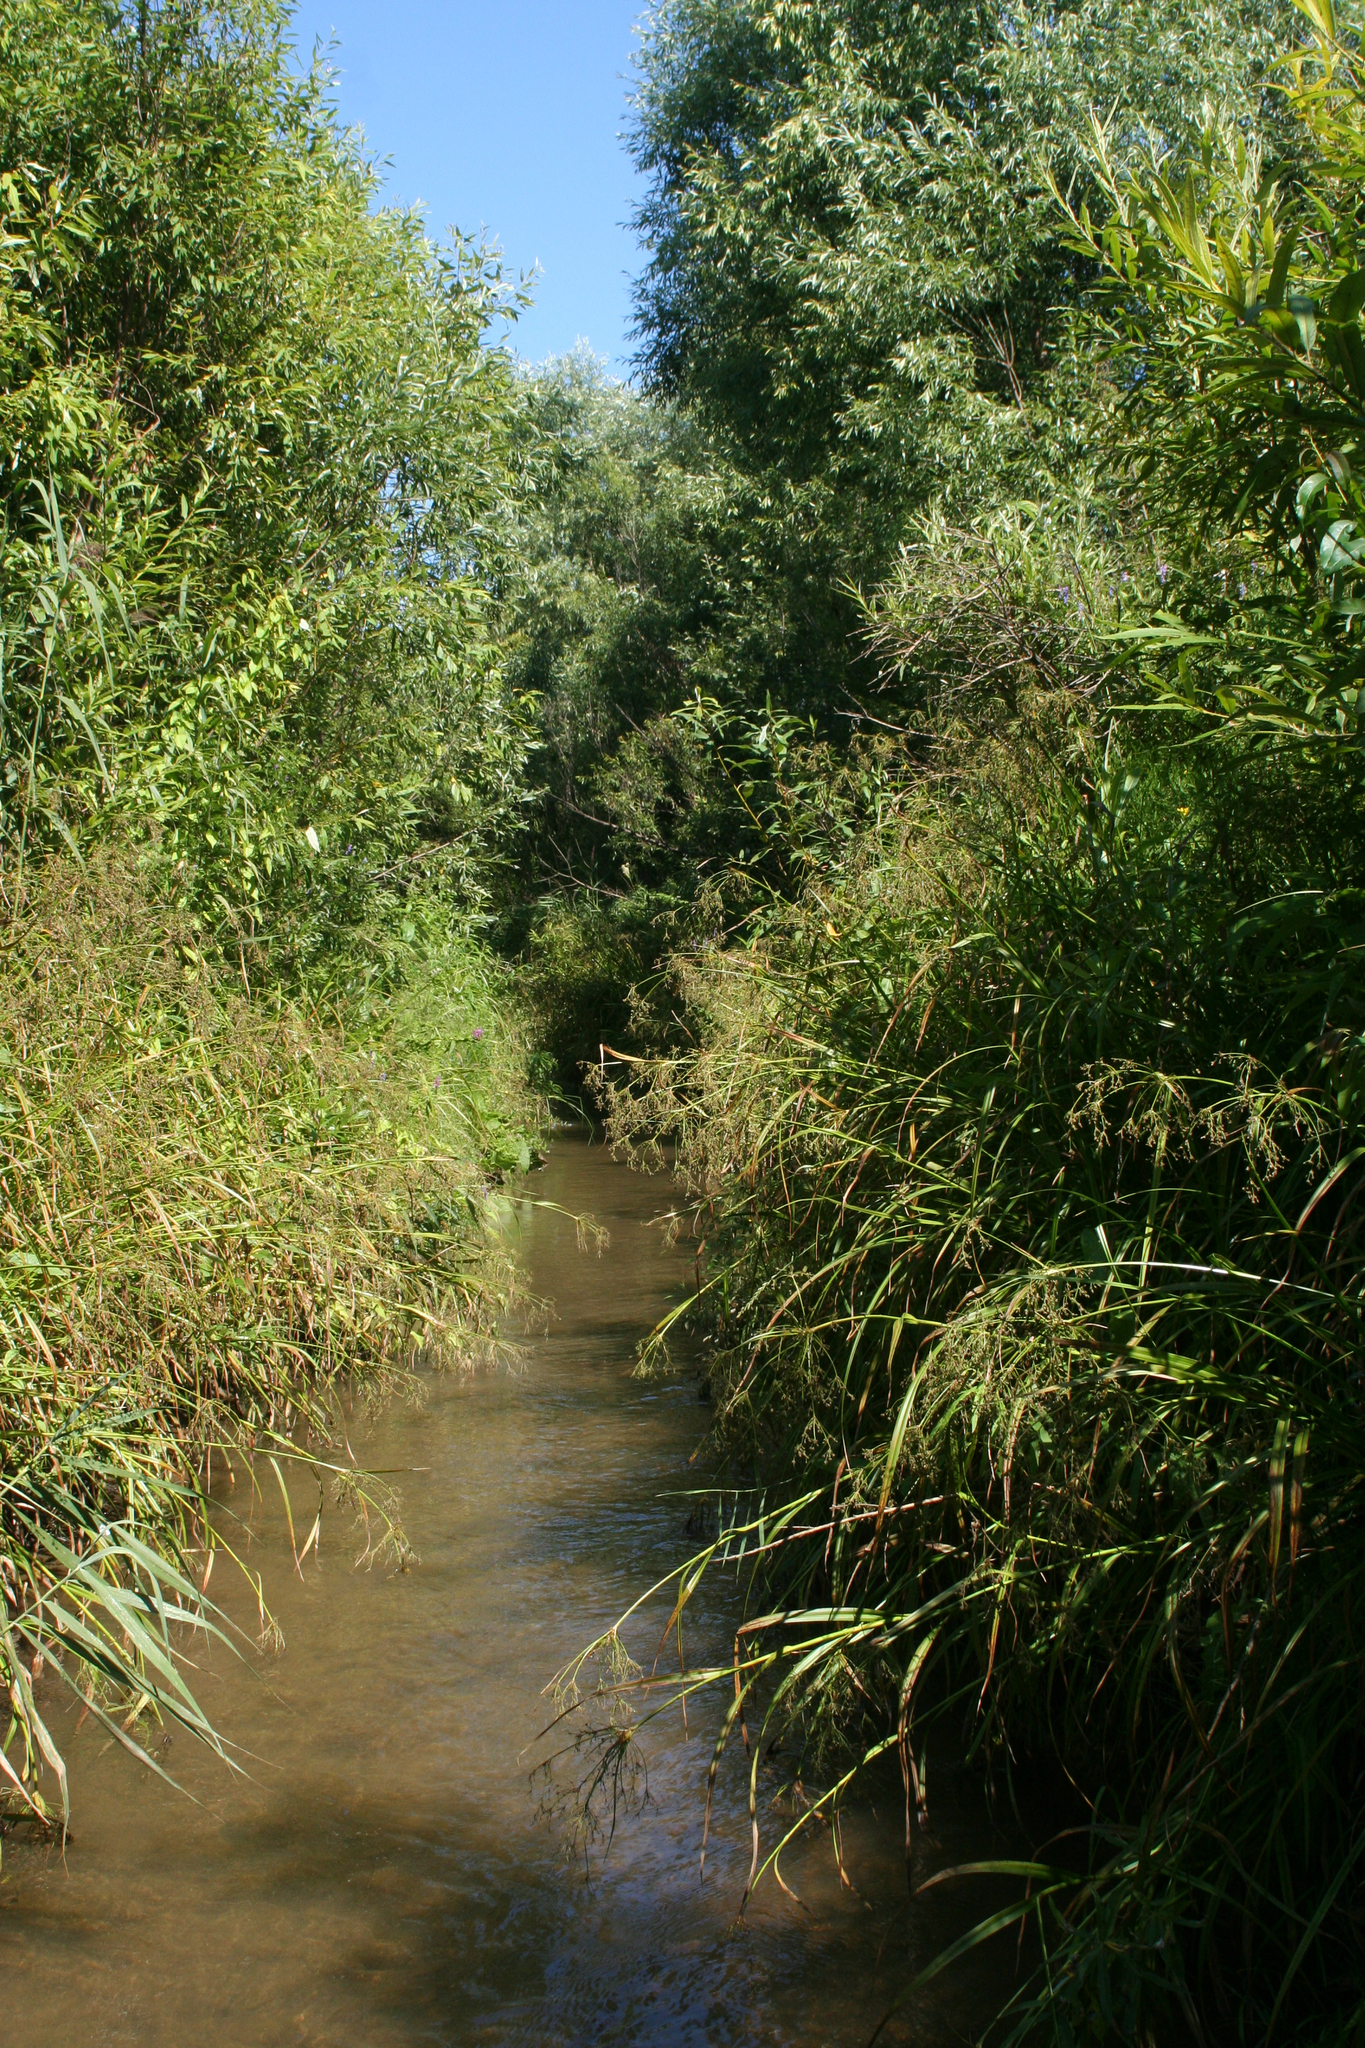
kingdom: Plantae
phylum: Tracheophyta
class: Liliopsida
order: Poales
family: Cyperaceae
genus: Scirpus
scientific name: Scirpus sylvaticus
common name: Wood club-rush
